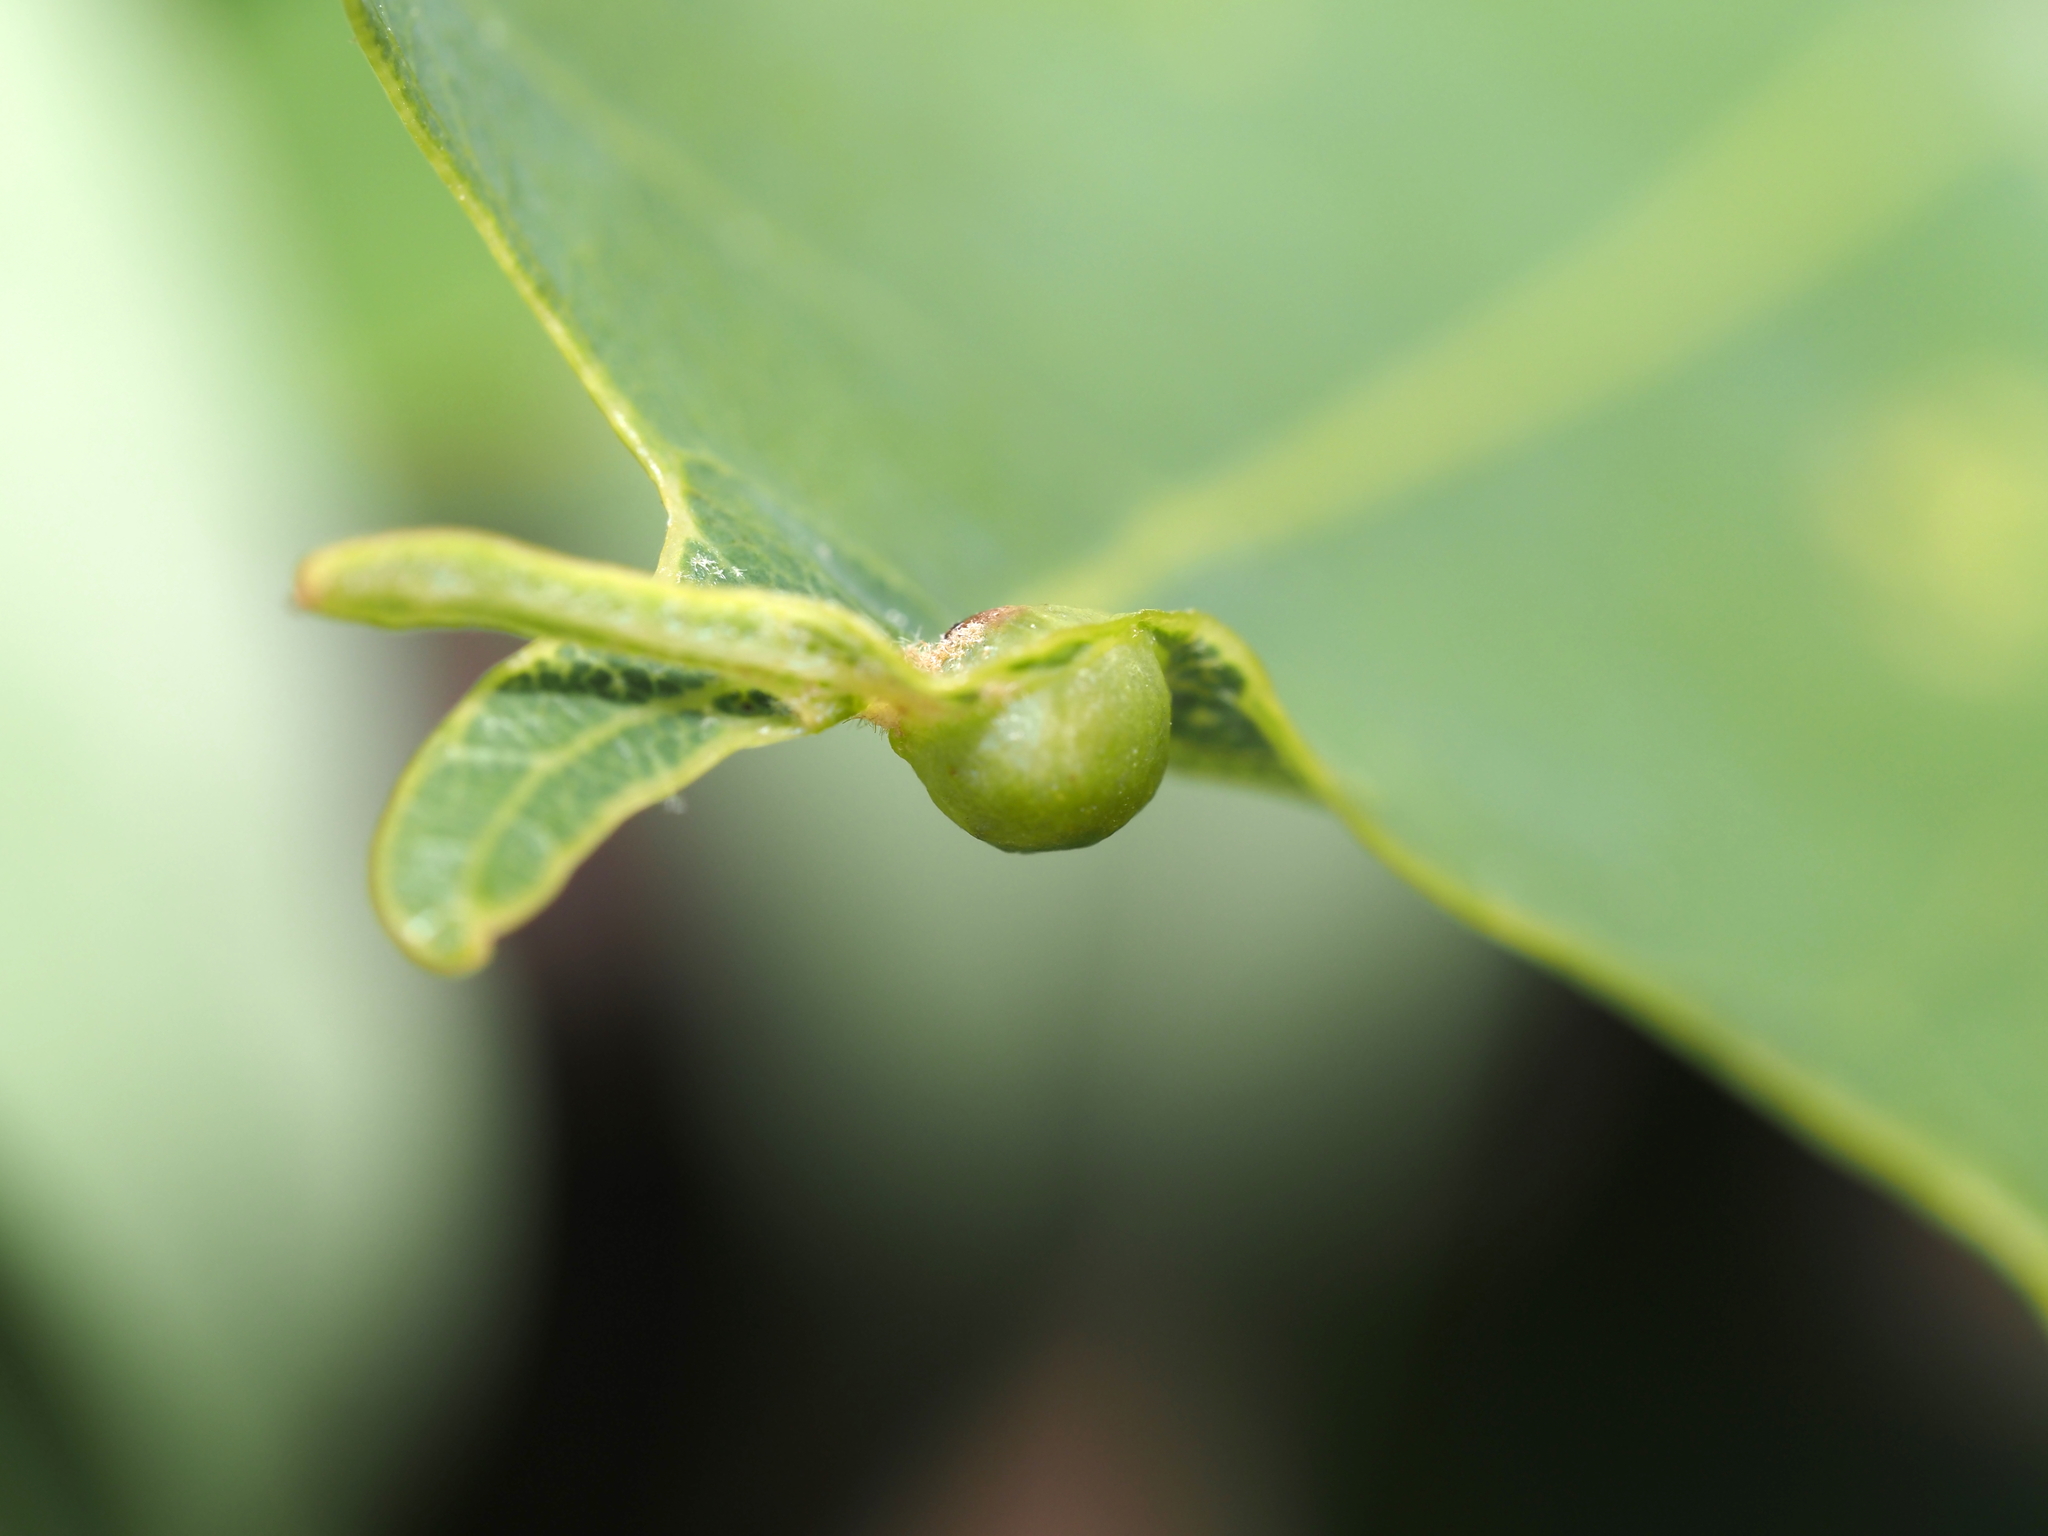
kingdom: Animalia
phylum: Arthropoda
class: Insecta
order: Hymenoptera
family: Cynipidae
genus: Andricus
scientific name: Andricus
